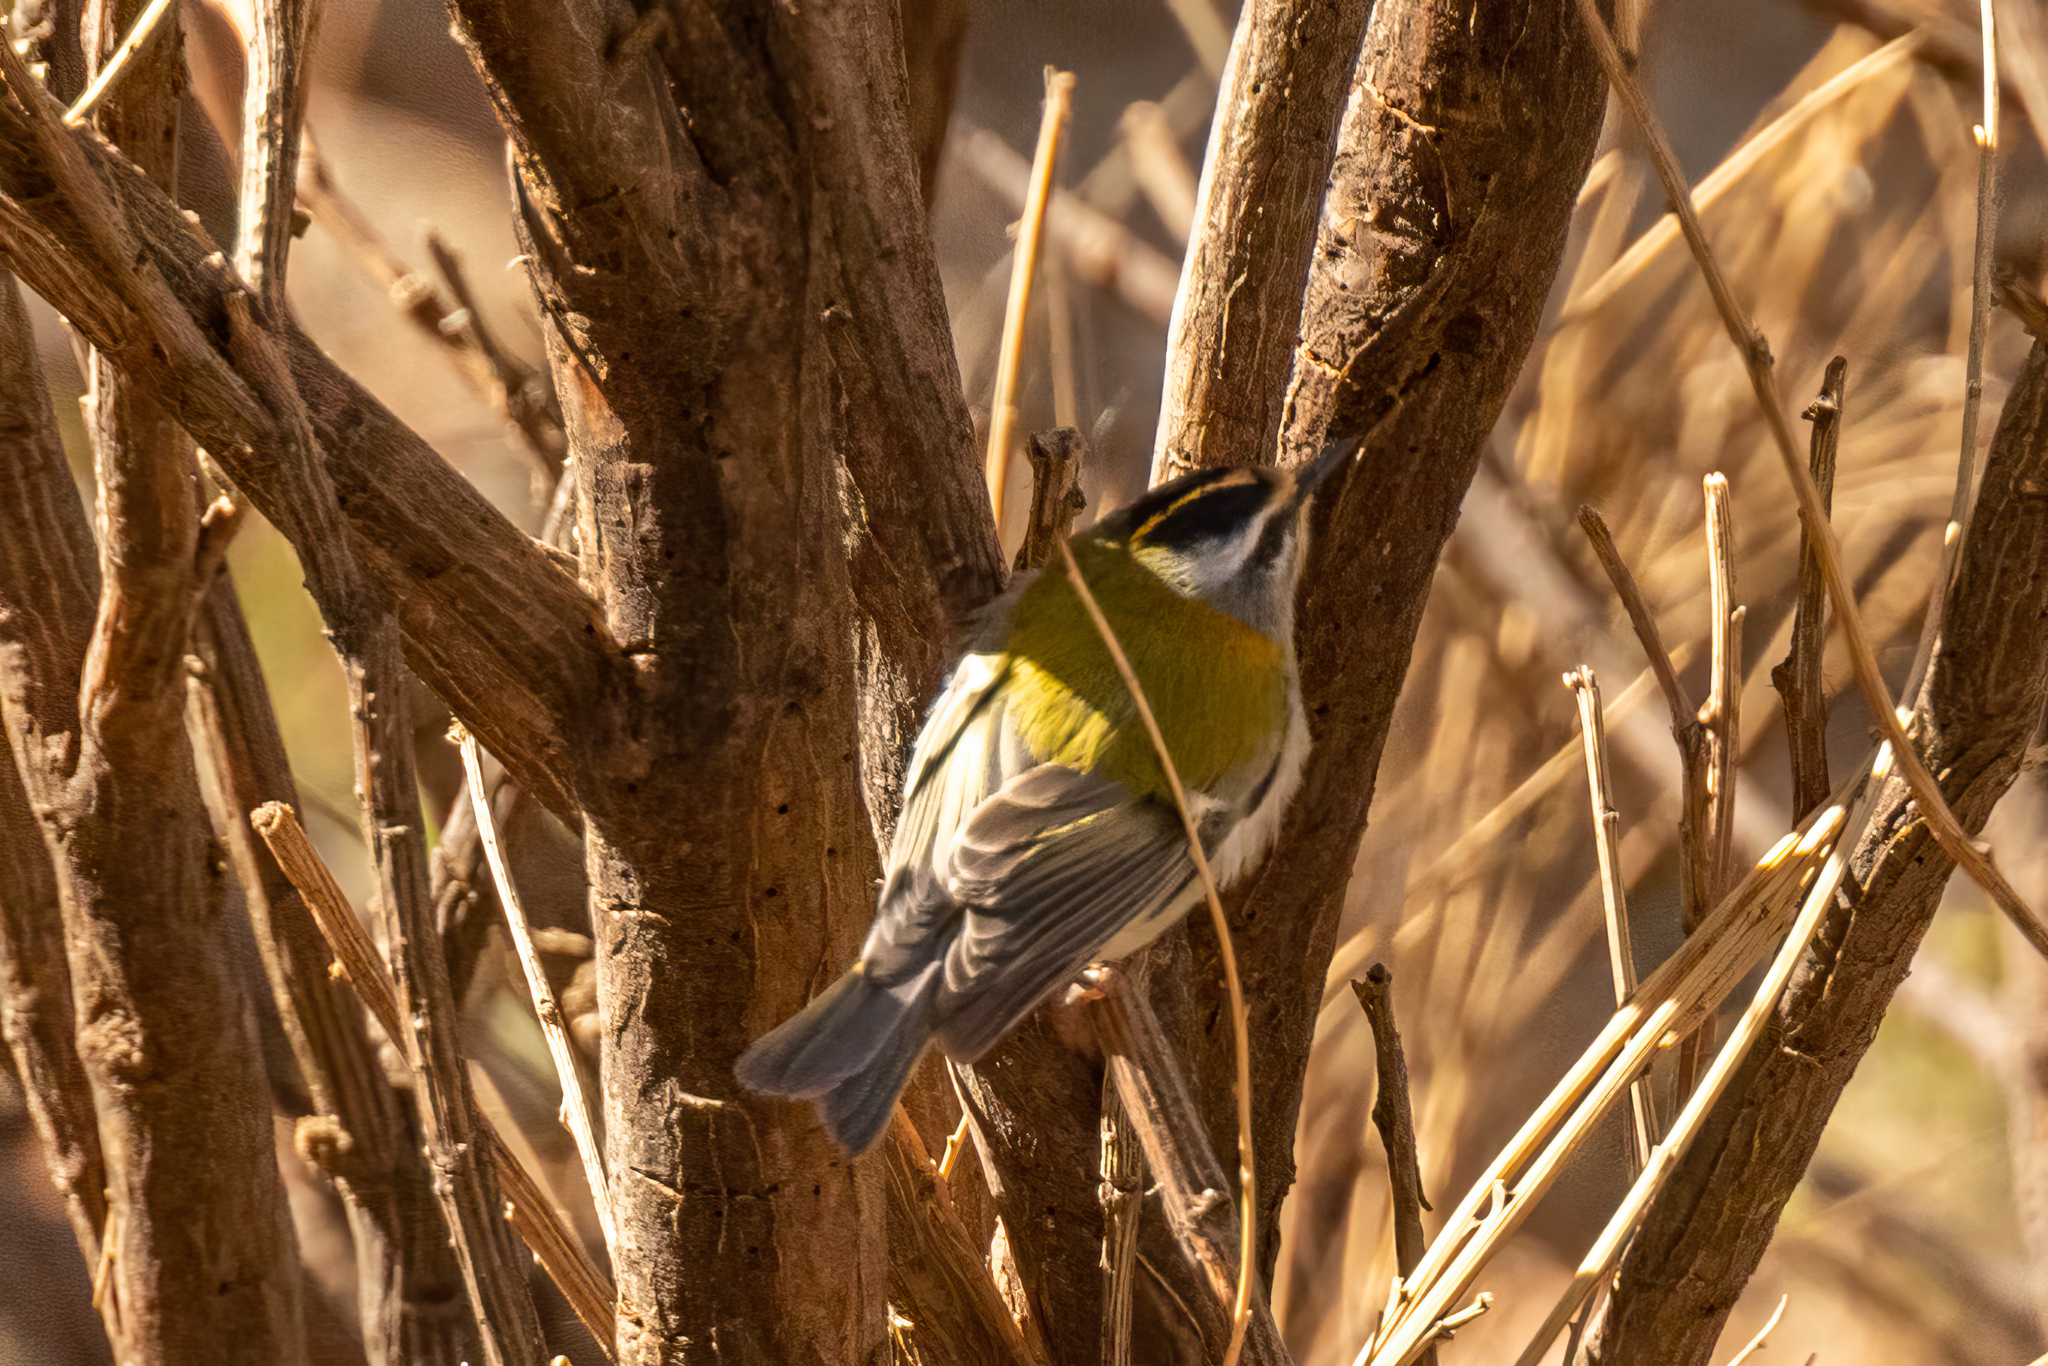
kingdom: Animalia
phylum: Chordata
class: Aves
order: Passeriformes
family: Regulidae
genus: Regulus
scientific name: Regulus ignicapilla
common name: Firecrest
